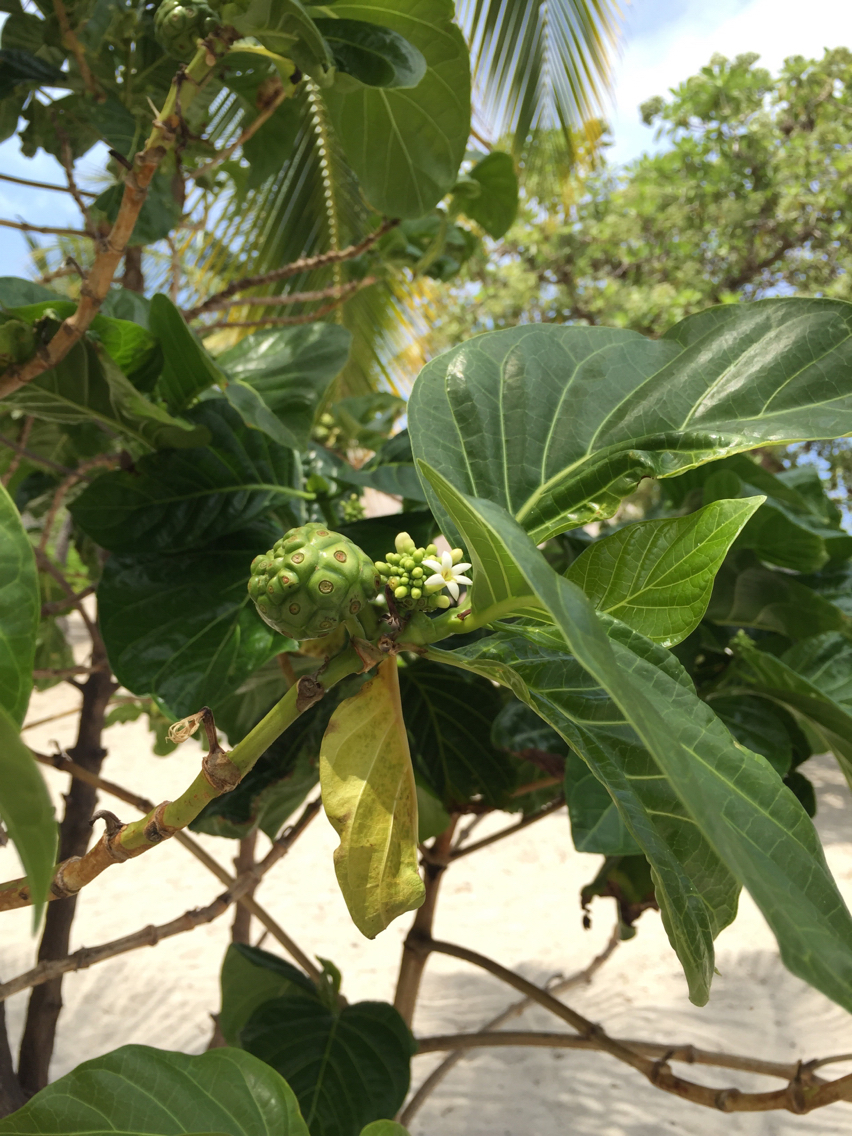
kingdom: Plantae
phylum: Tracheophyta
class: Magnoliopsida
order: Gentianales
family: Rubiaceae
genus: Morinda
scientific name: Morinda citrifolia
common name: Indian-mulberry
